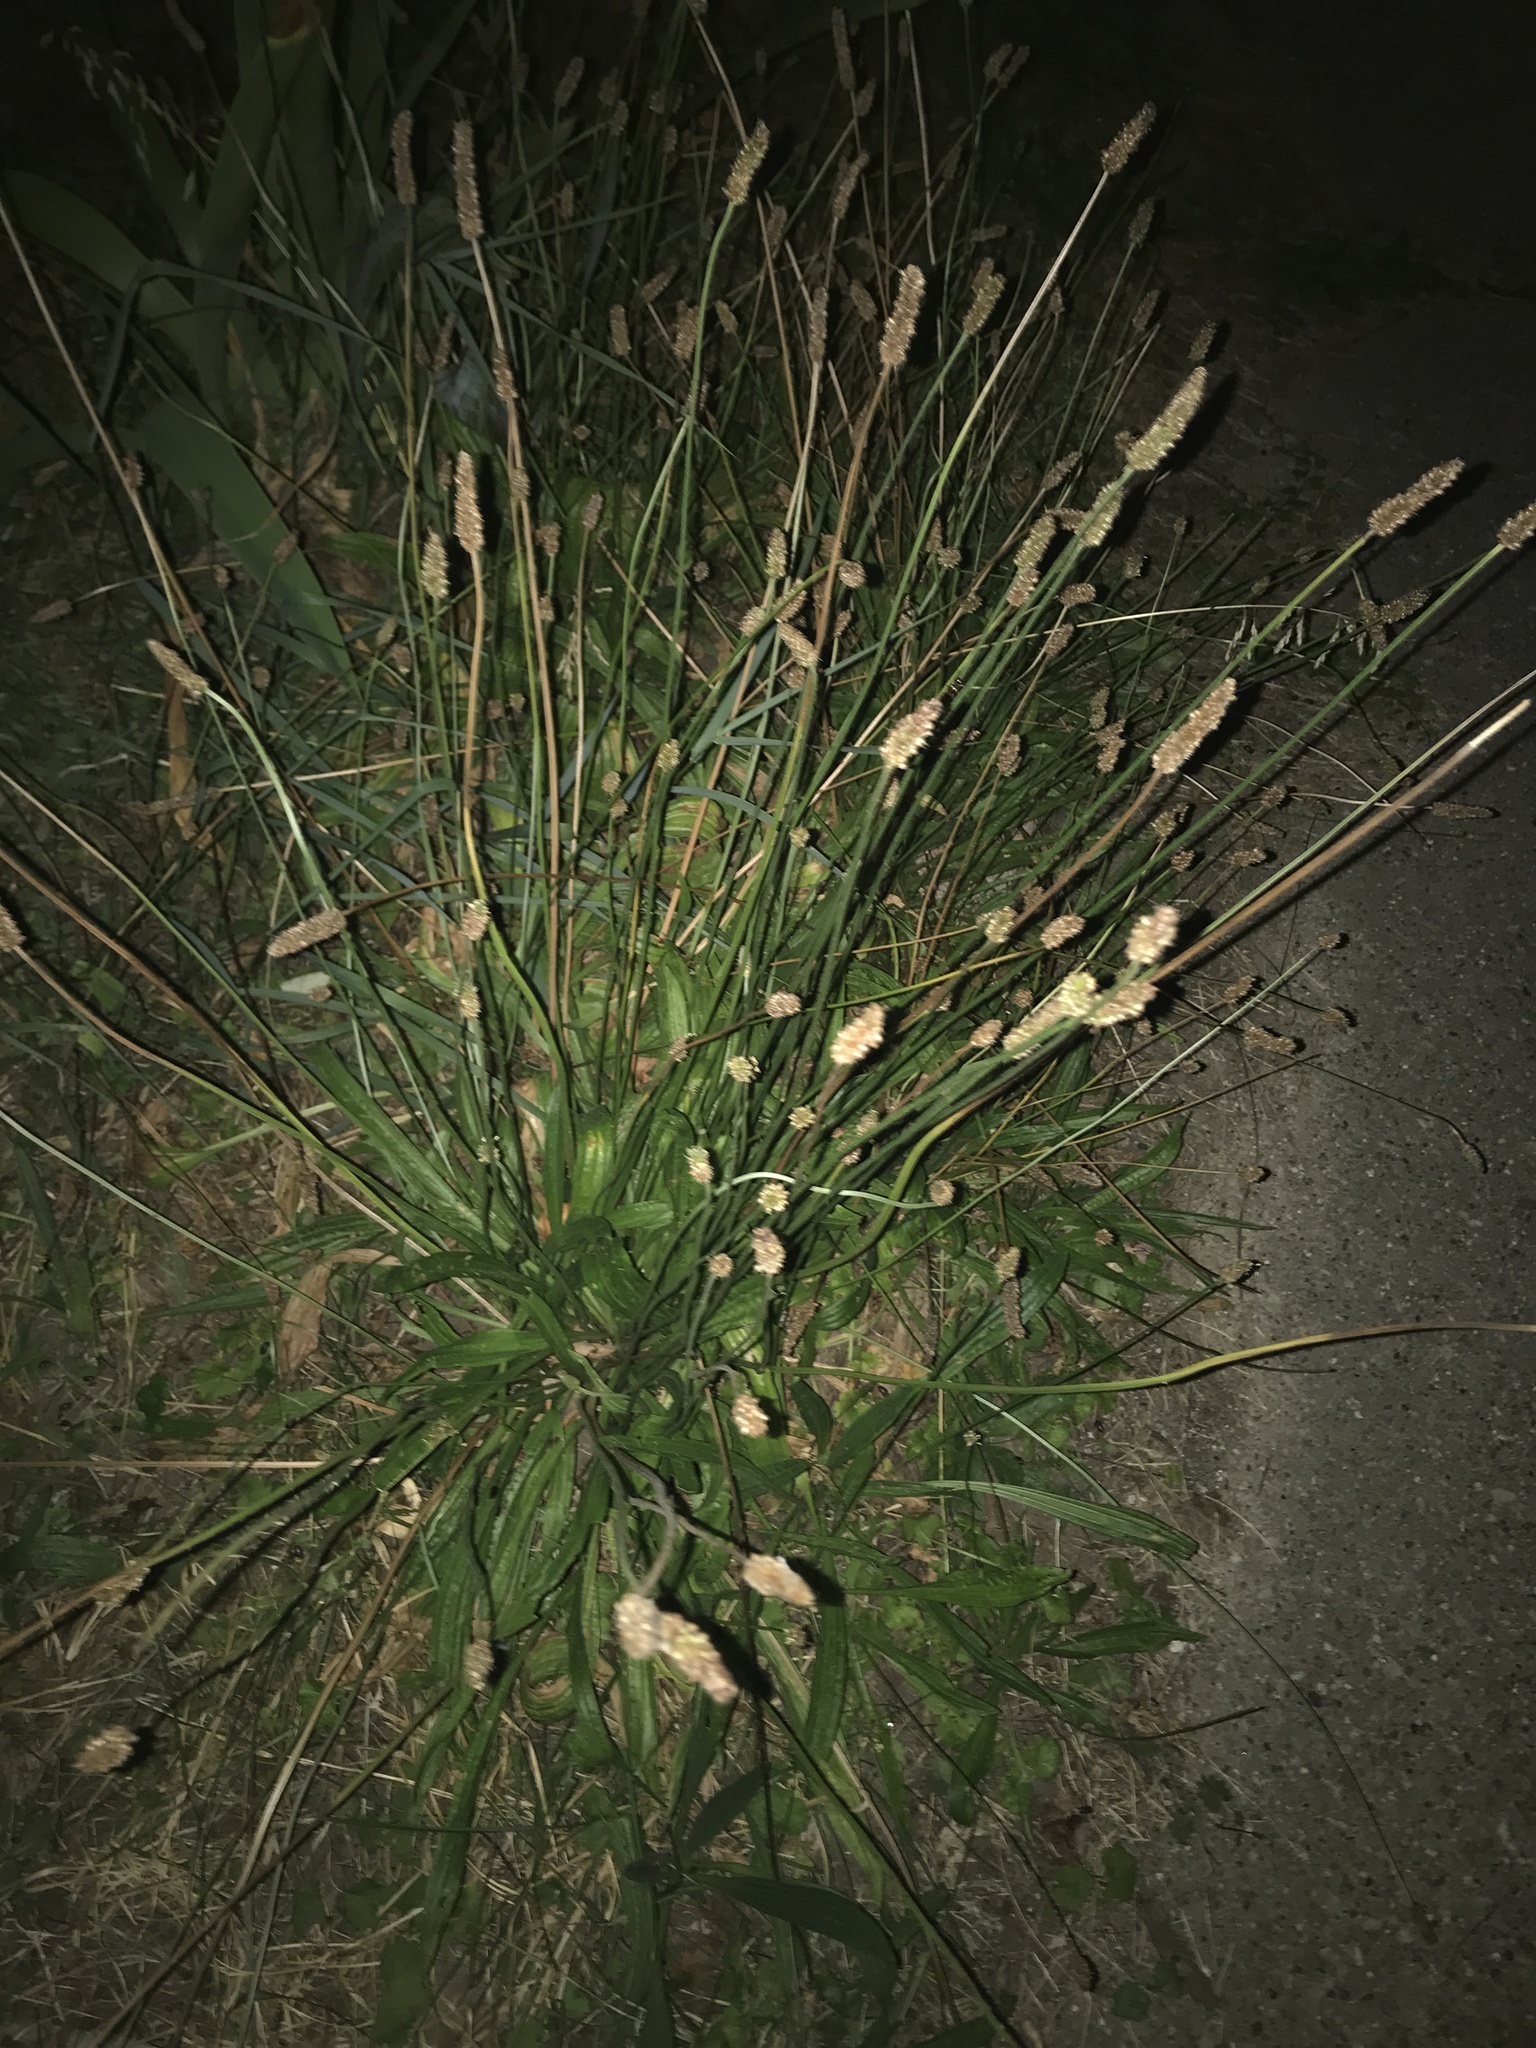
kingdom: Plantae
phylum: Tracheophyta
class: Magnoliopsida
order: Lamiales
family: Plantaginaceae
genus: Plantago
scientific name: Plantago lanceolata
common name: Ribwort plantain
